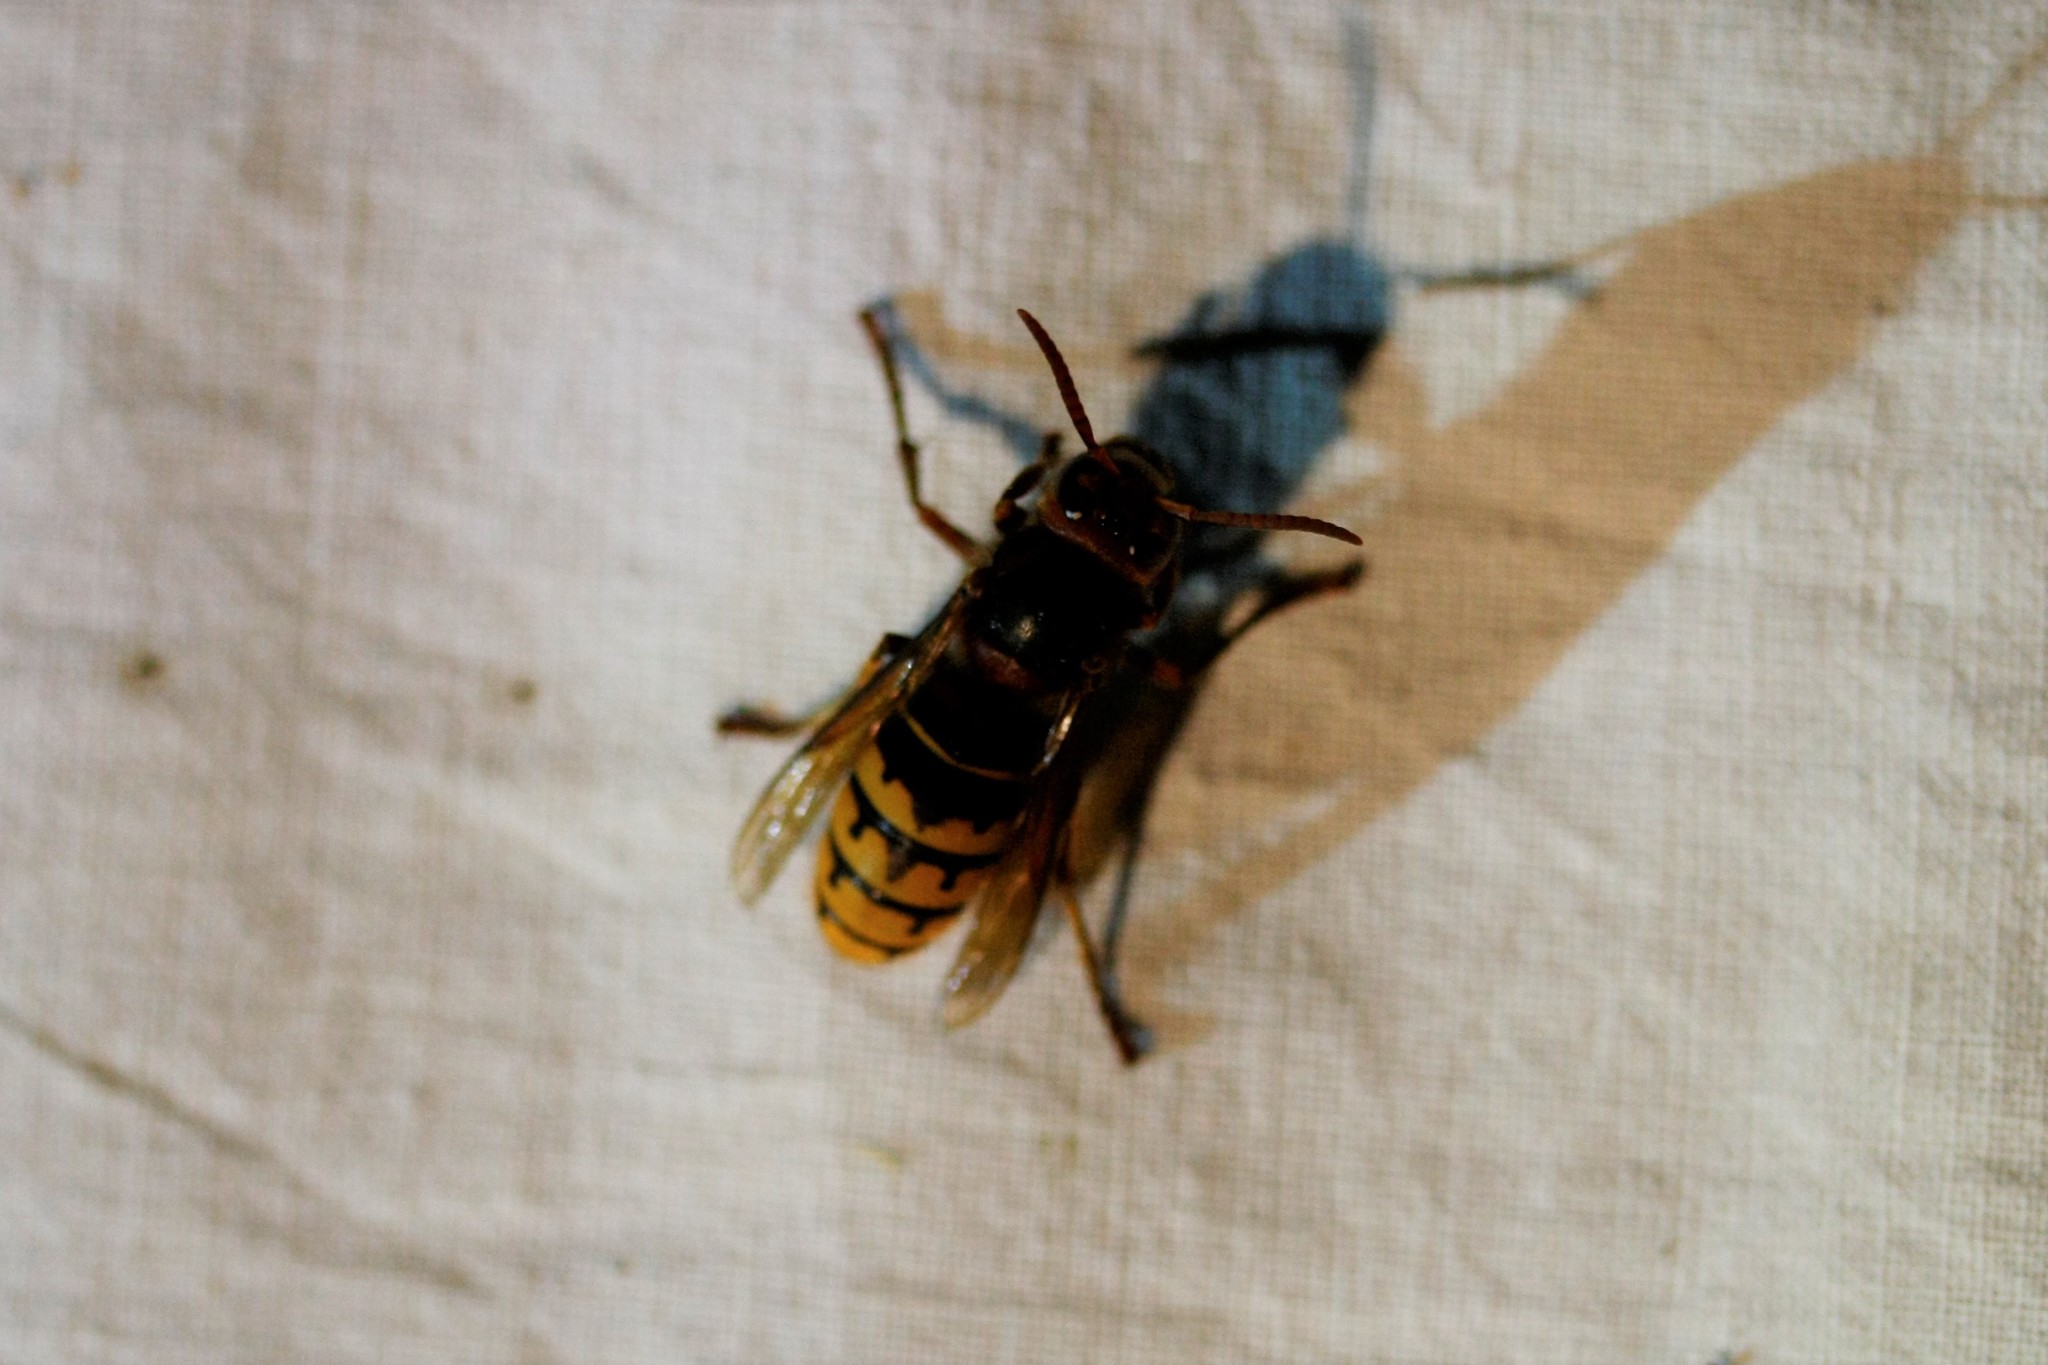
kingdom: Animalia
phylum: Arthropoda
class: Insecta
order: Hymenoptera
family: Vespidae
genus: Vespa
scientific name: Vespa crabro
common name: Hornet
